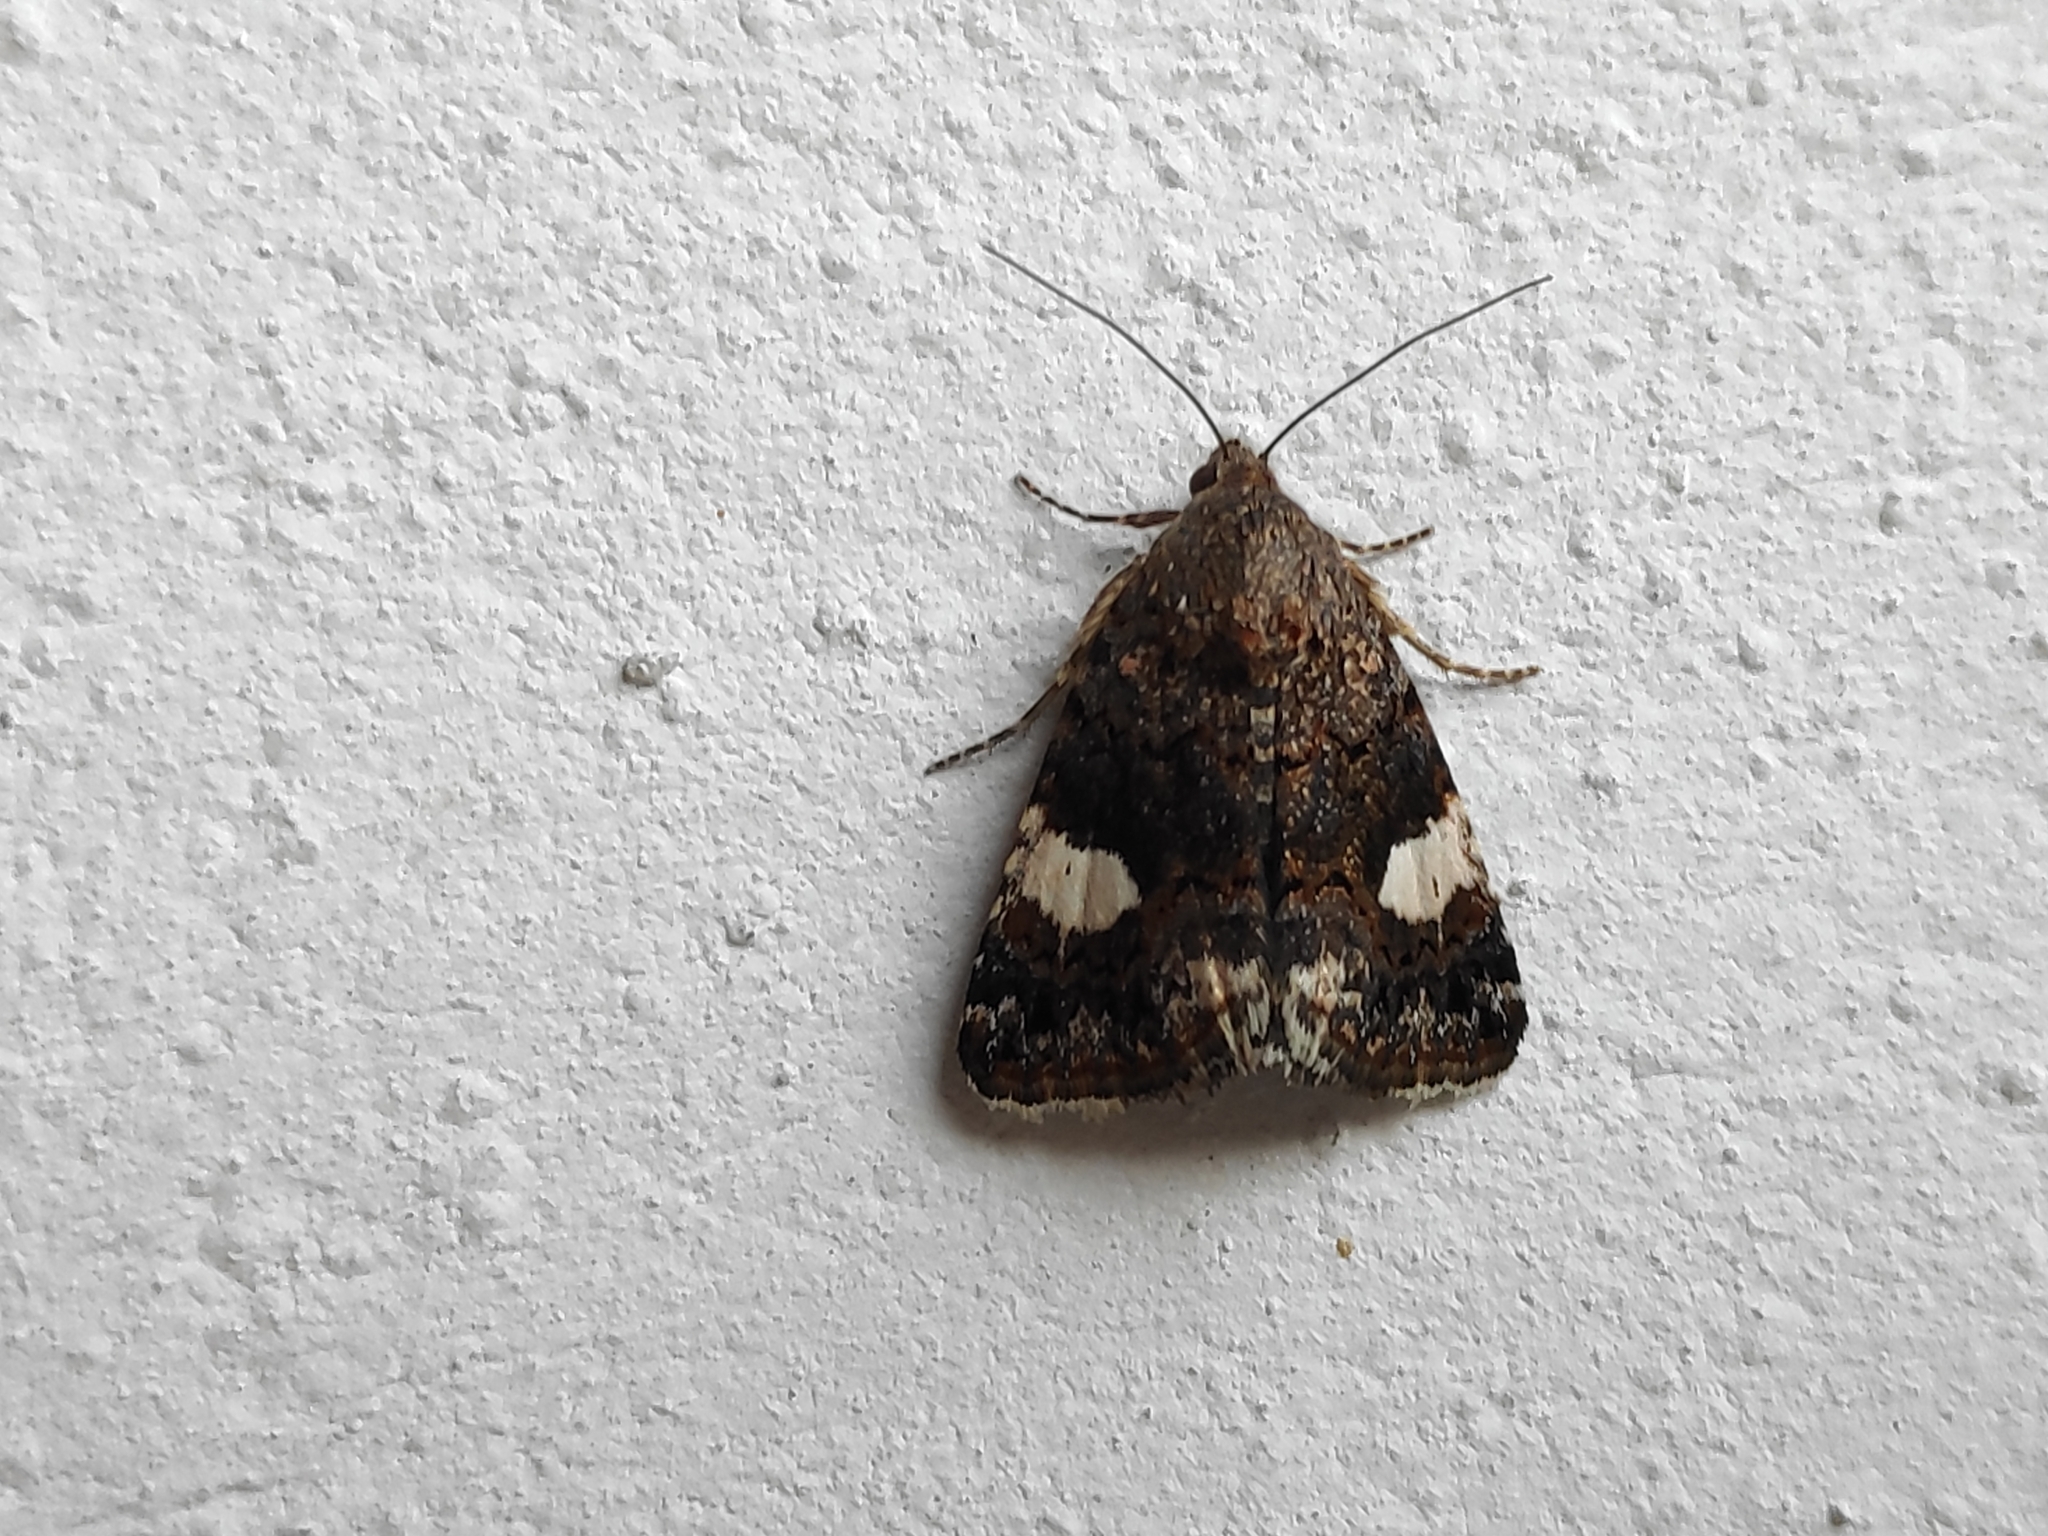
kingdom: Animalia
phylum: Arthropoda
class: Insecta
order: Lepidoptera
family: Erebidae
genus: Tyta
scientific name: Tyta luctuosa
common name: Four-spotted
